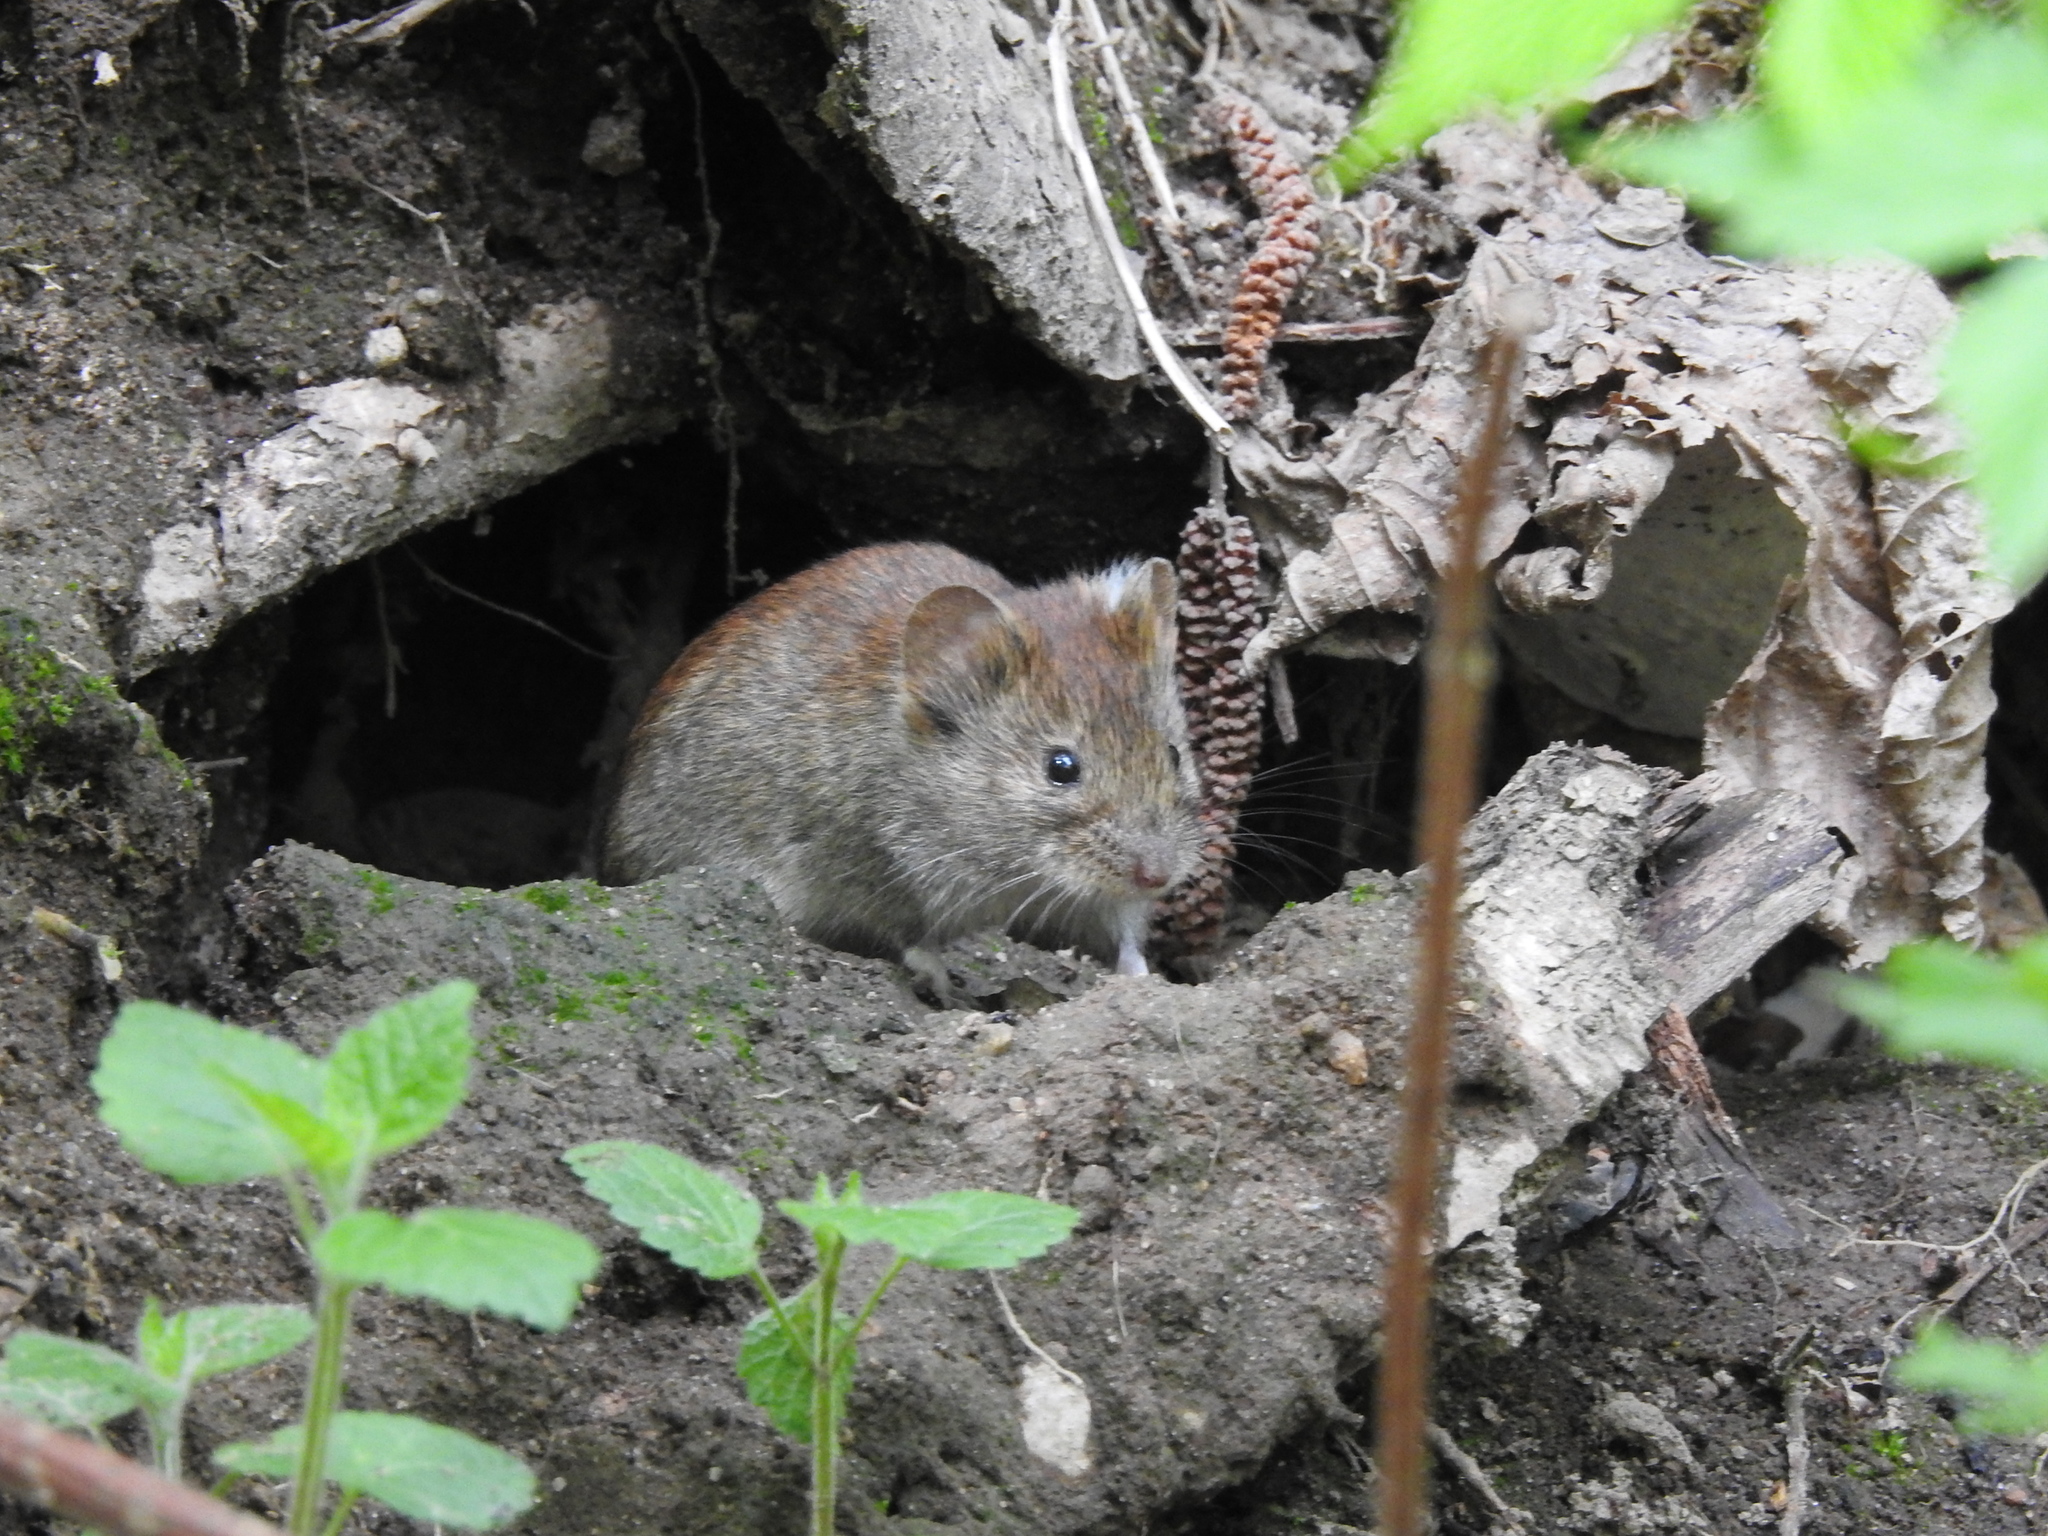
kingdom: Animalia
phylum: Chordata
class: Mammalia
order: Rodentia
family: Cricetidae
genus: Myodes
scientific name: Myodes glareolus
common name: Bank vole
